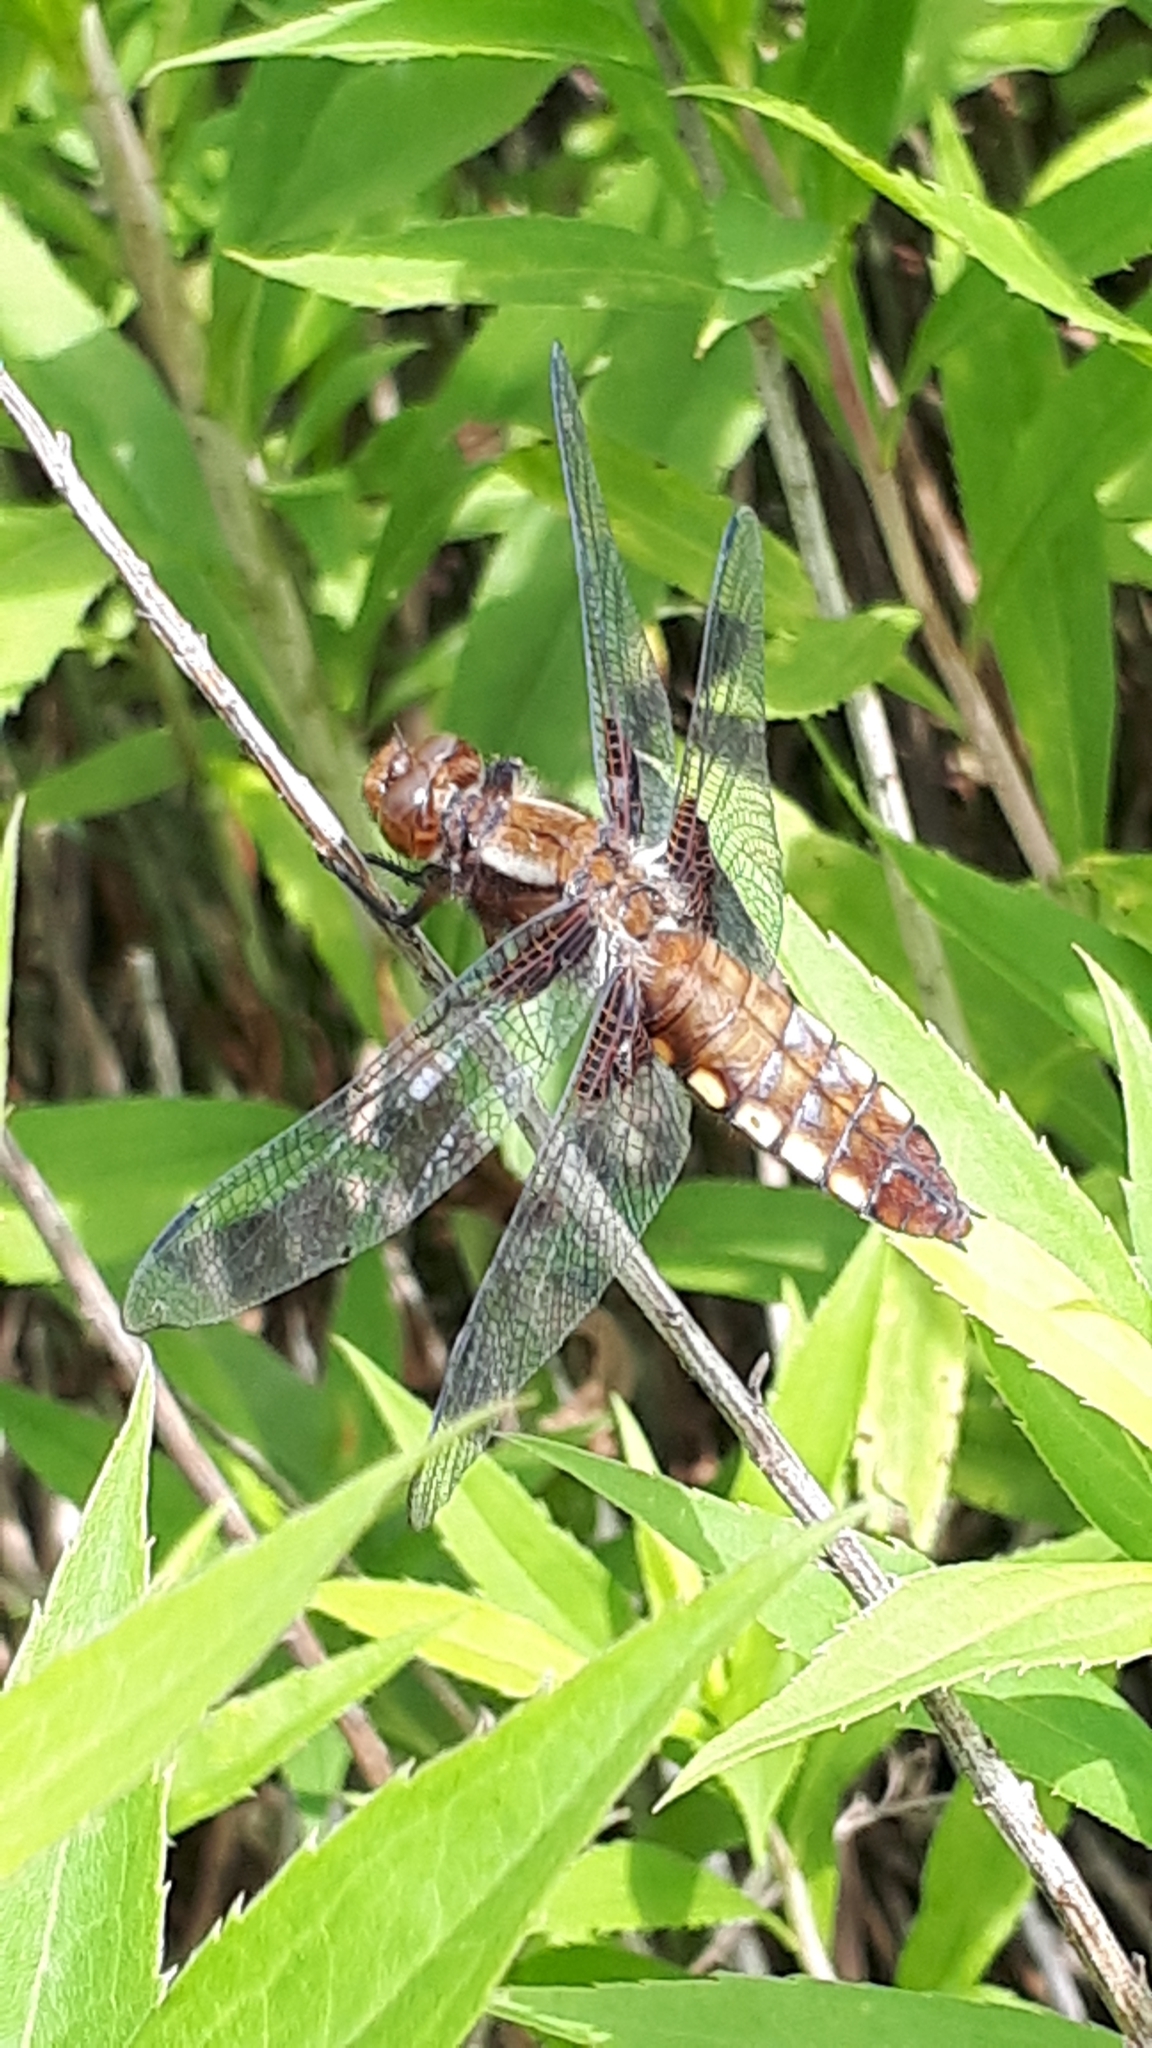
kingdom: Animalia
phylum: Arthropoda
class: Insecta
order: Odonata
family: Libellulidae
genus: Libellula
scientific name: Libellula depressa
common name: Broad-bodied chaser
